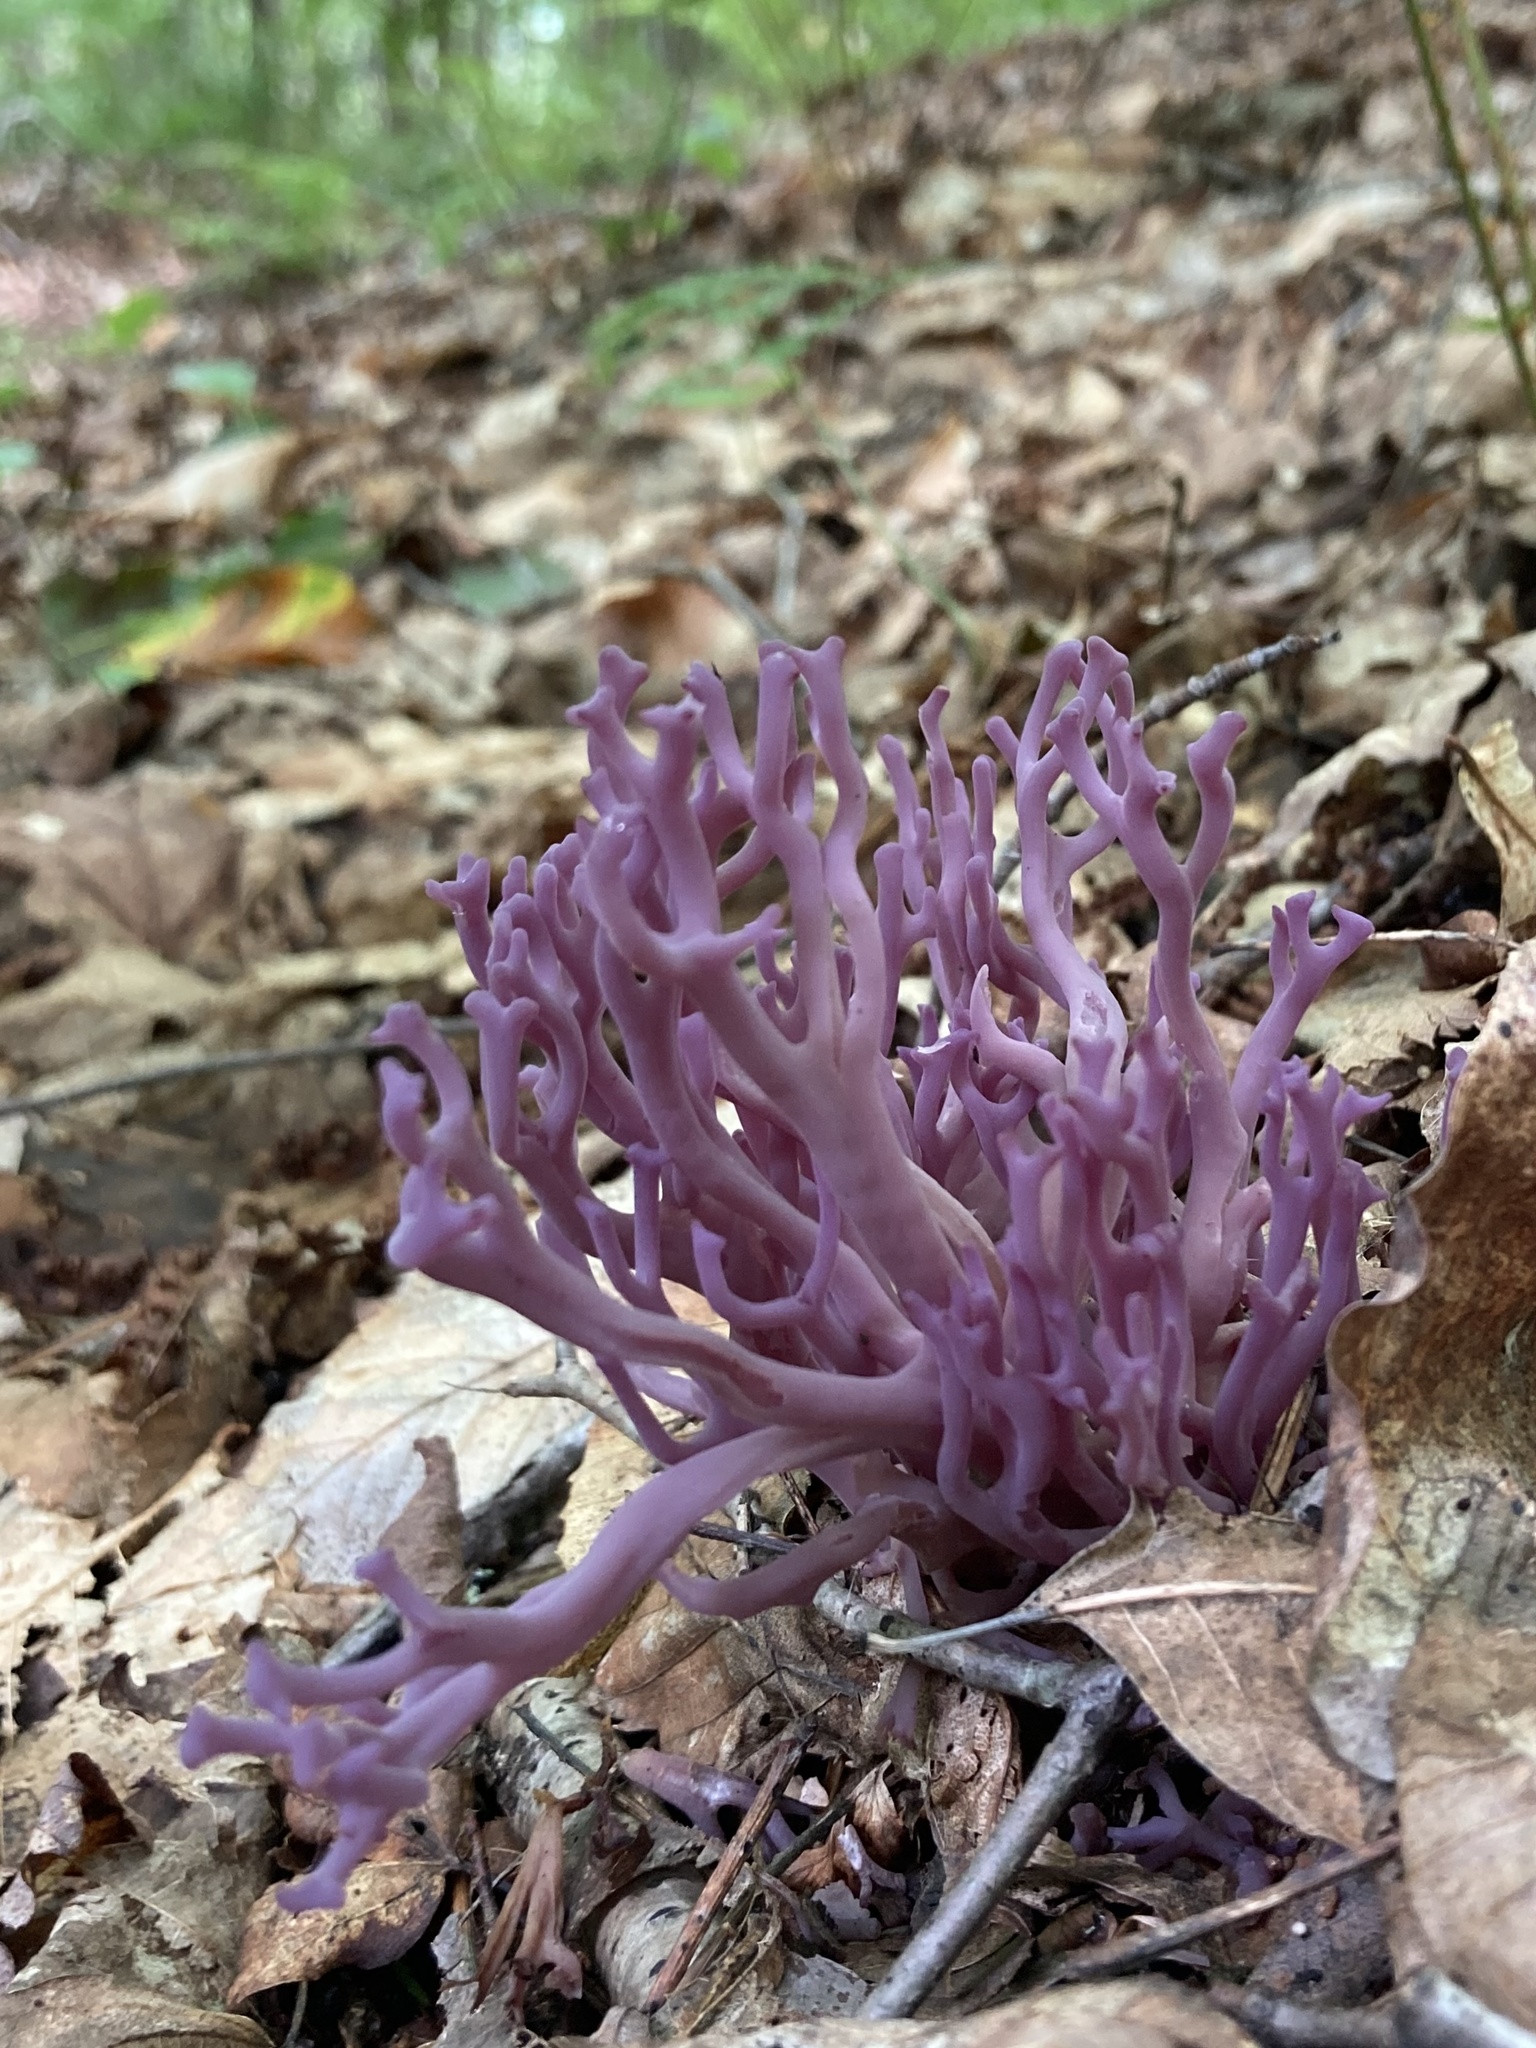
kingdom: Fungi
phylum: Basidiomycota
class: Agaricomycetes
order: Agaricales
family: Clavariaceae
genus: Clavaria
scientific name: Clavaria zollingeri
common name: Violet coral
